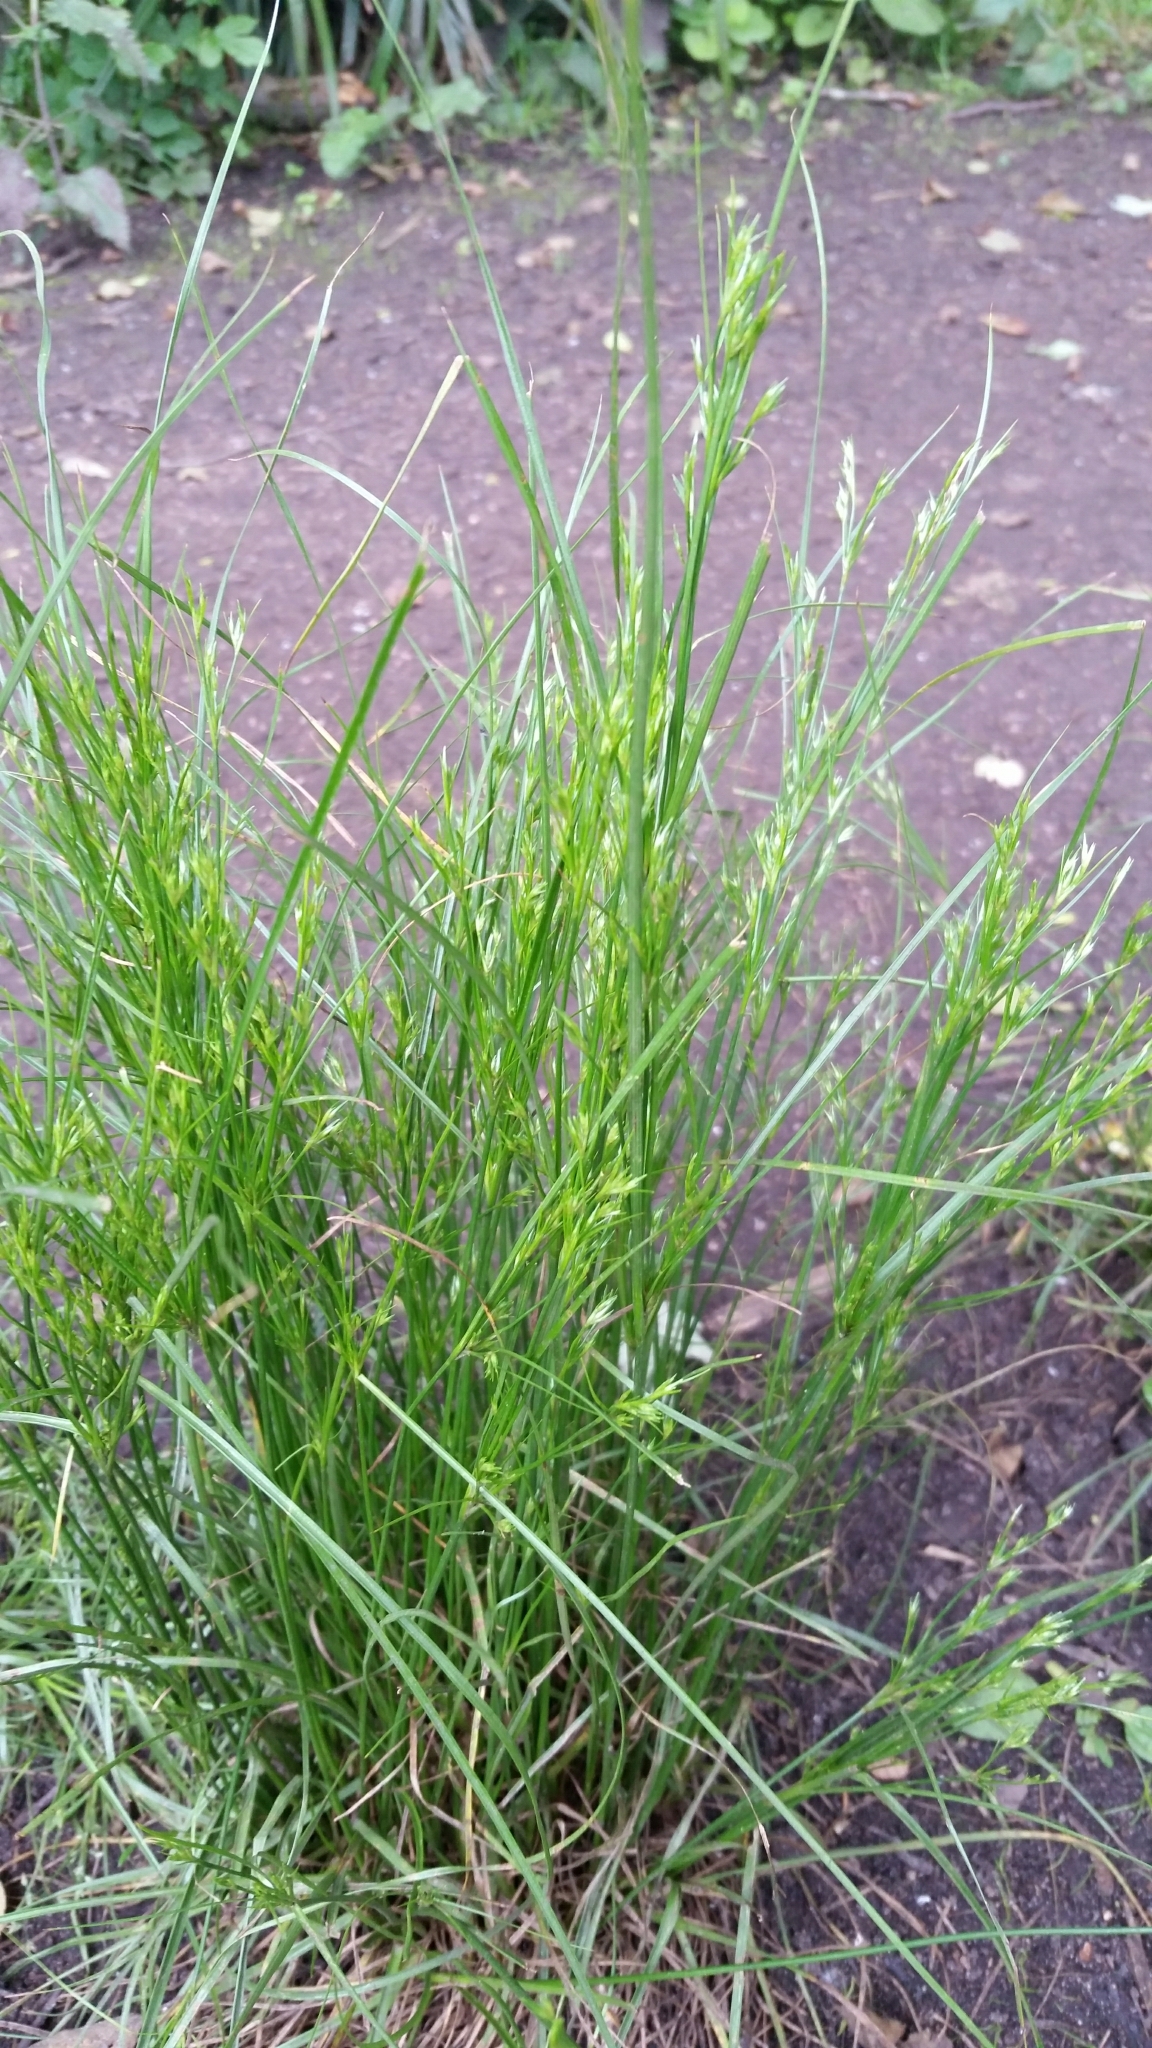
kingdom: Plantae
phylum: Tracheophyta
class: Liliopsida
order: Poales
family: Juncaceae
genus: Juncus
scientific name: Juncus tenuis
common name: Slender rush
